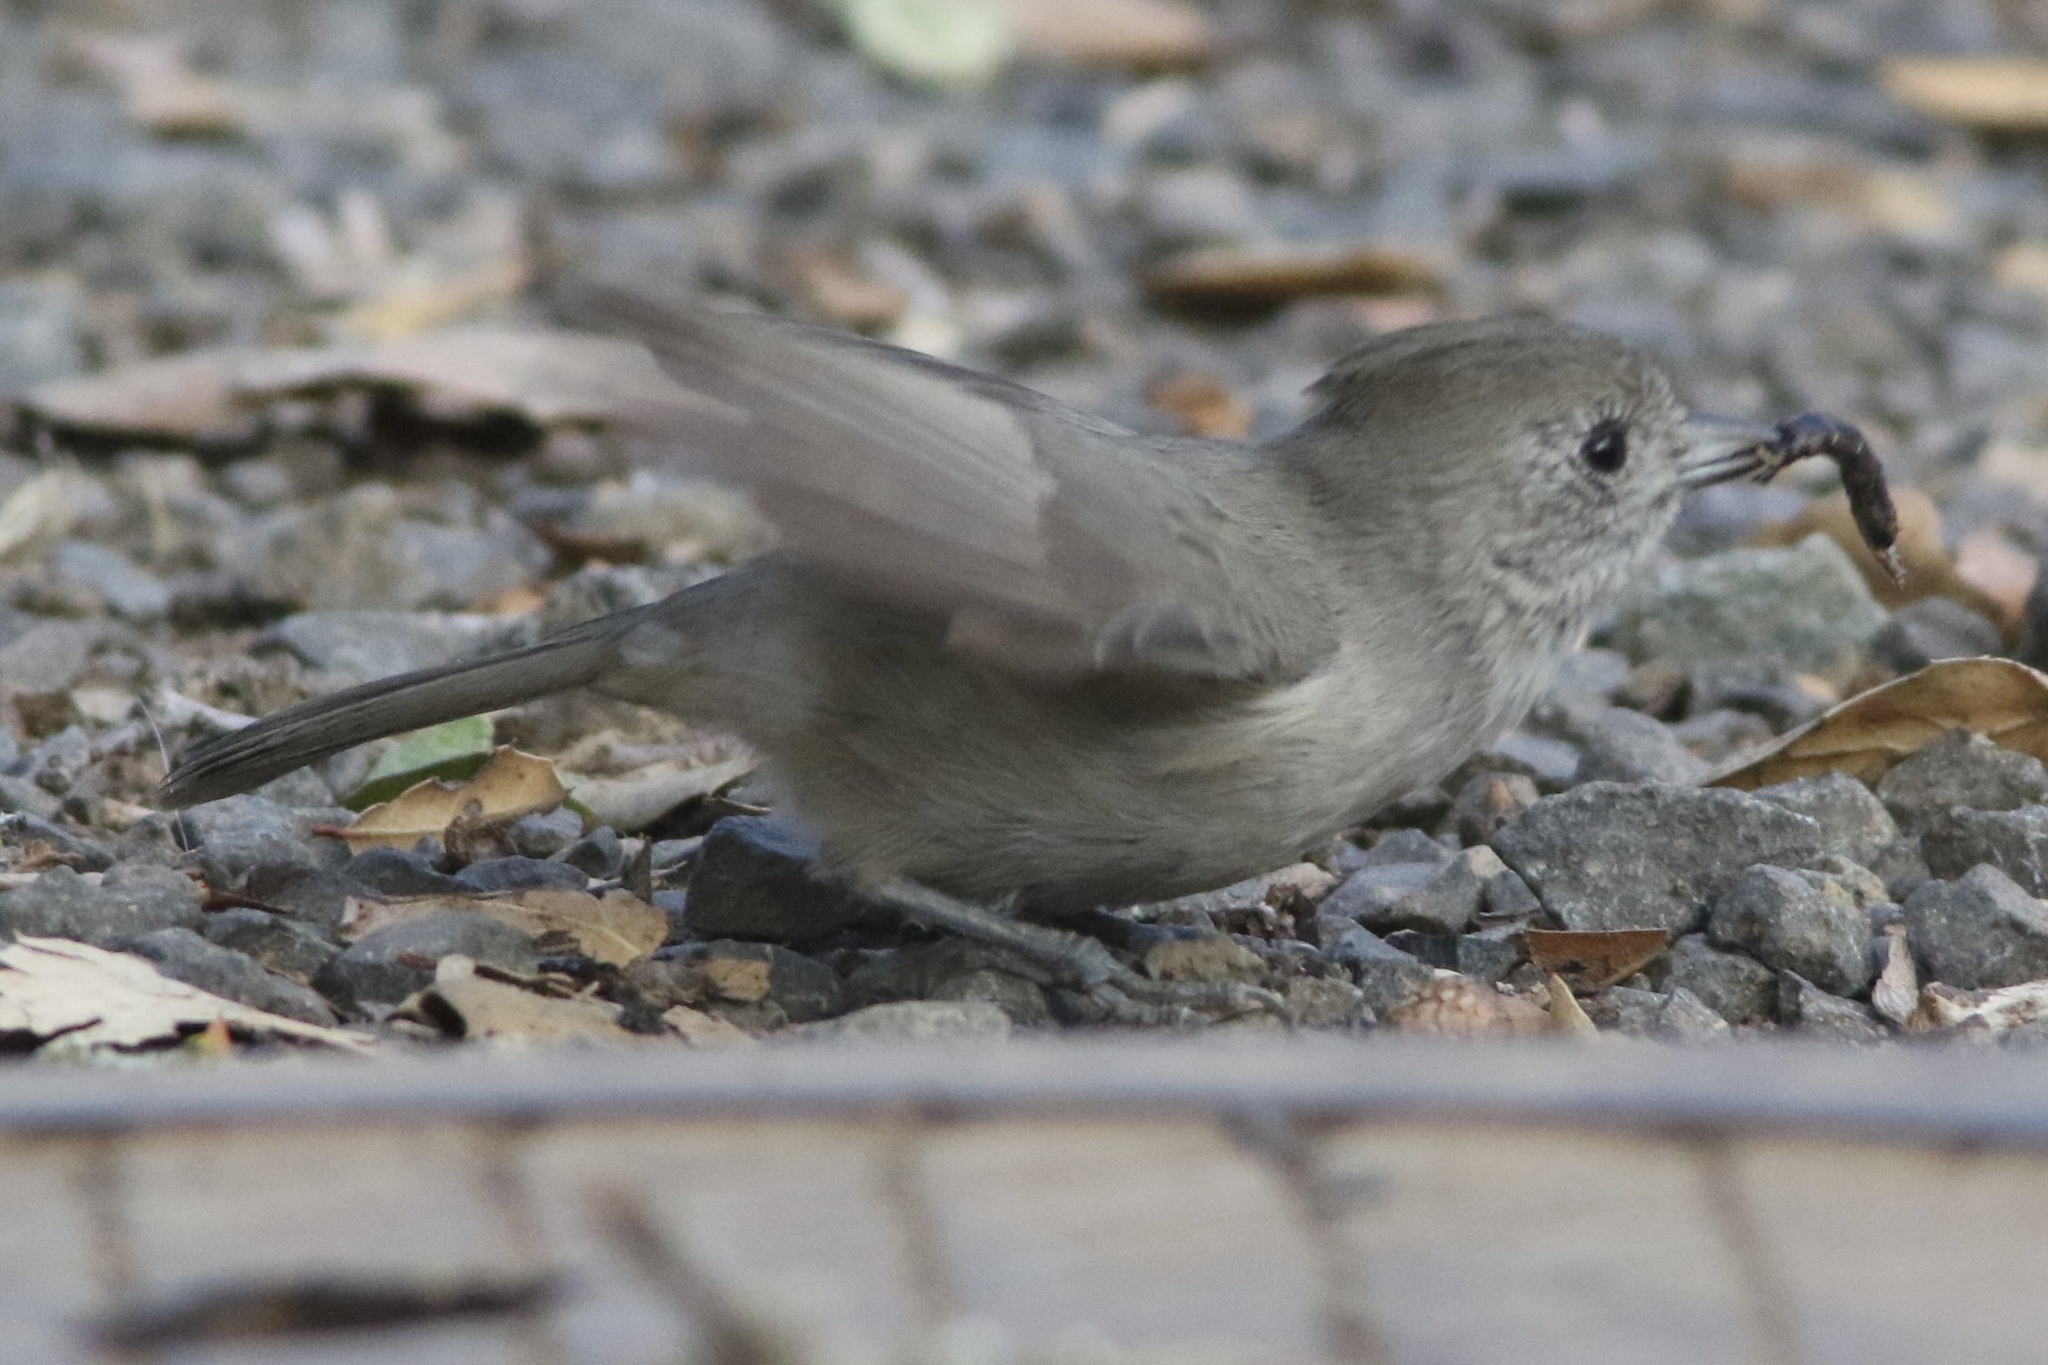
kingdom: Animalia
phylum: Chordata
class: Aves
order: Passeriformes
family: Paridae
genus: Baeolophus
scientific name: Baeolophus inornatus
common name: Oak titmouse
